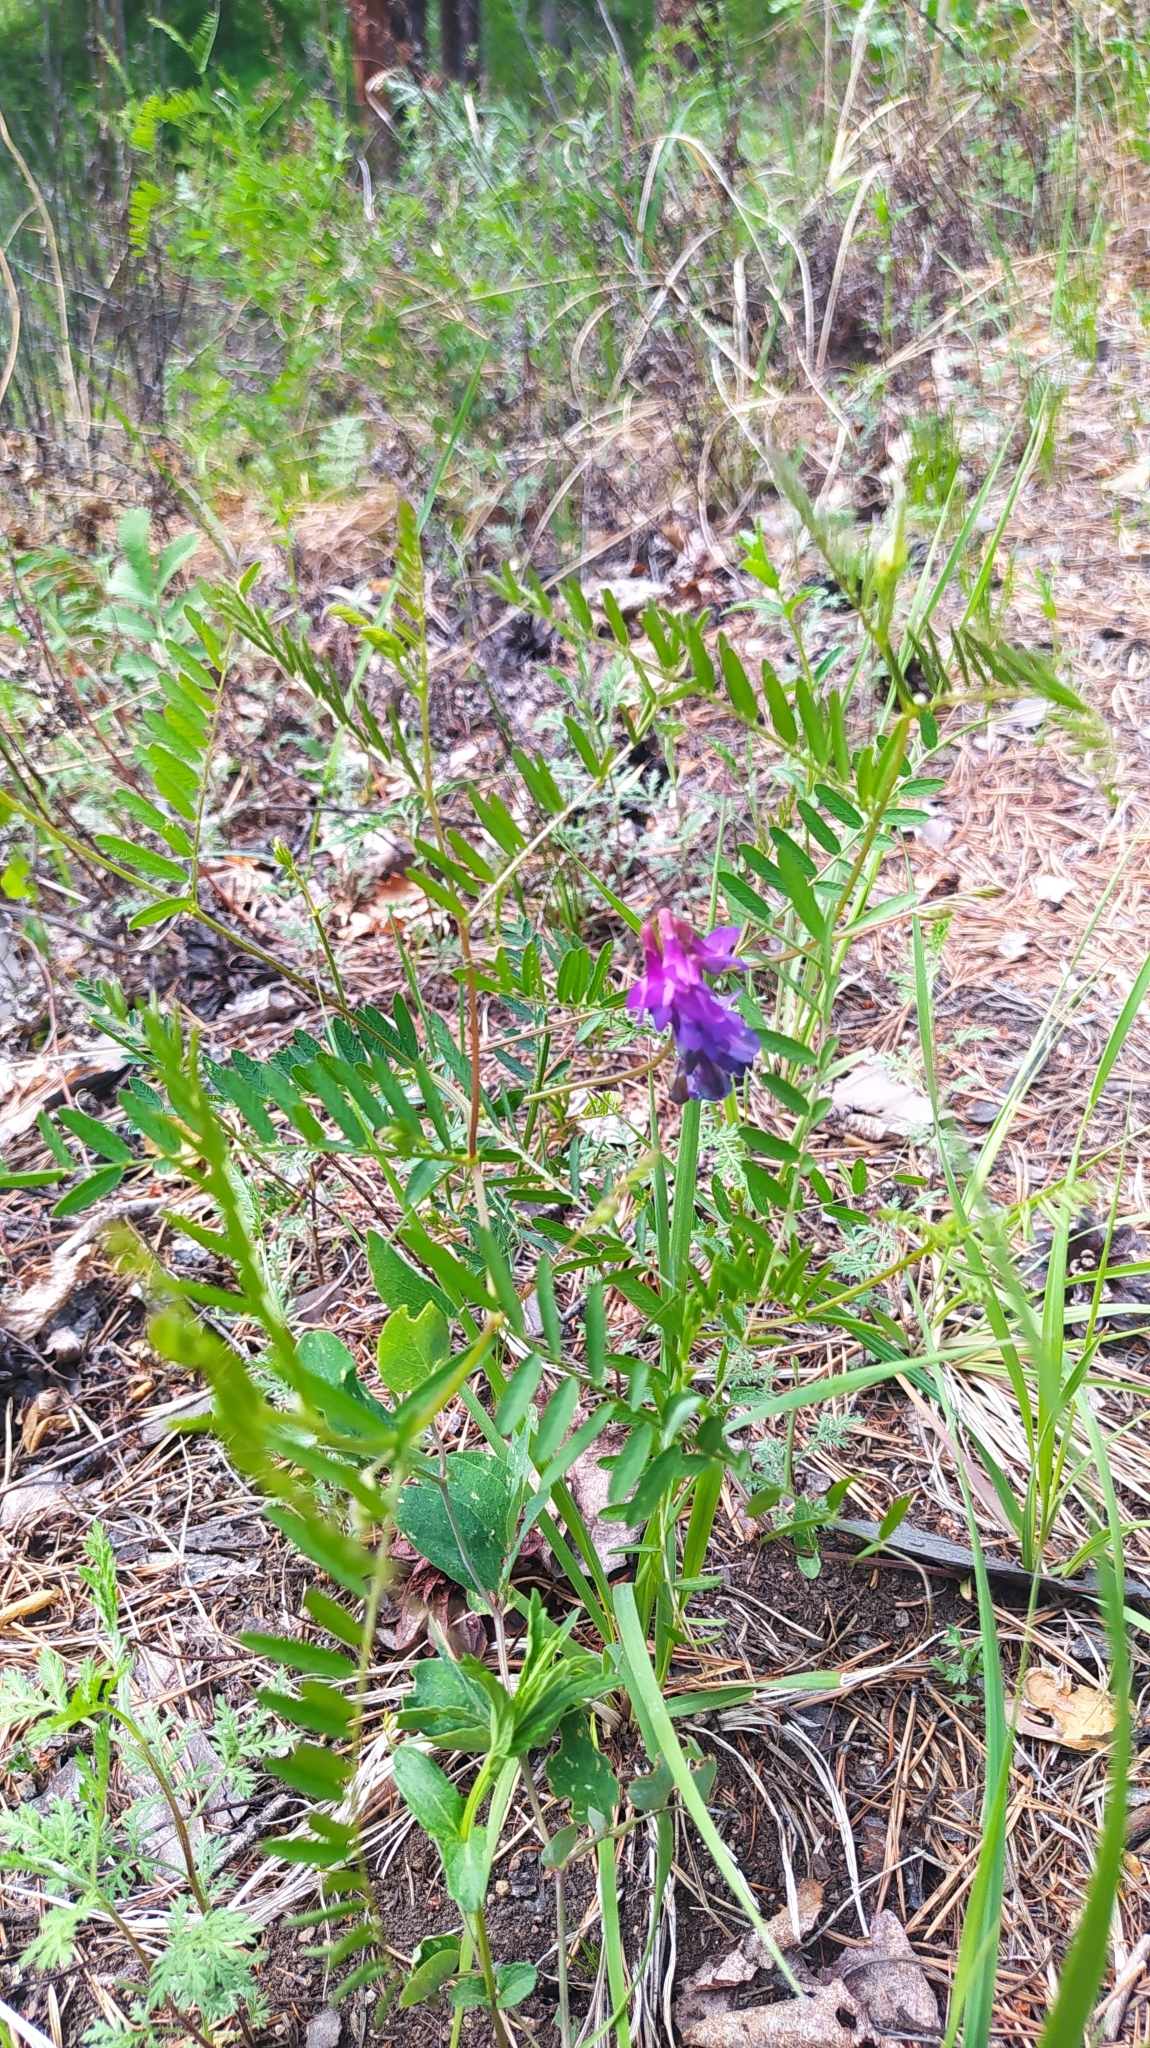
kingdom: Plantae
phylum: Tracheophyta
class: Magnoliopsida
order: Fabales
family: Fabaceae
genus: Vicia
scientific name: Vicia multicaulis
